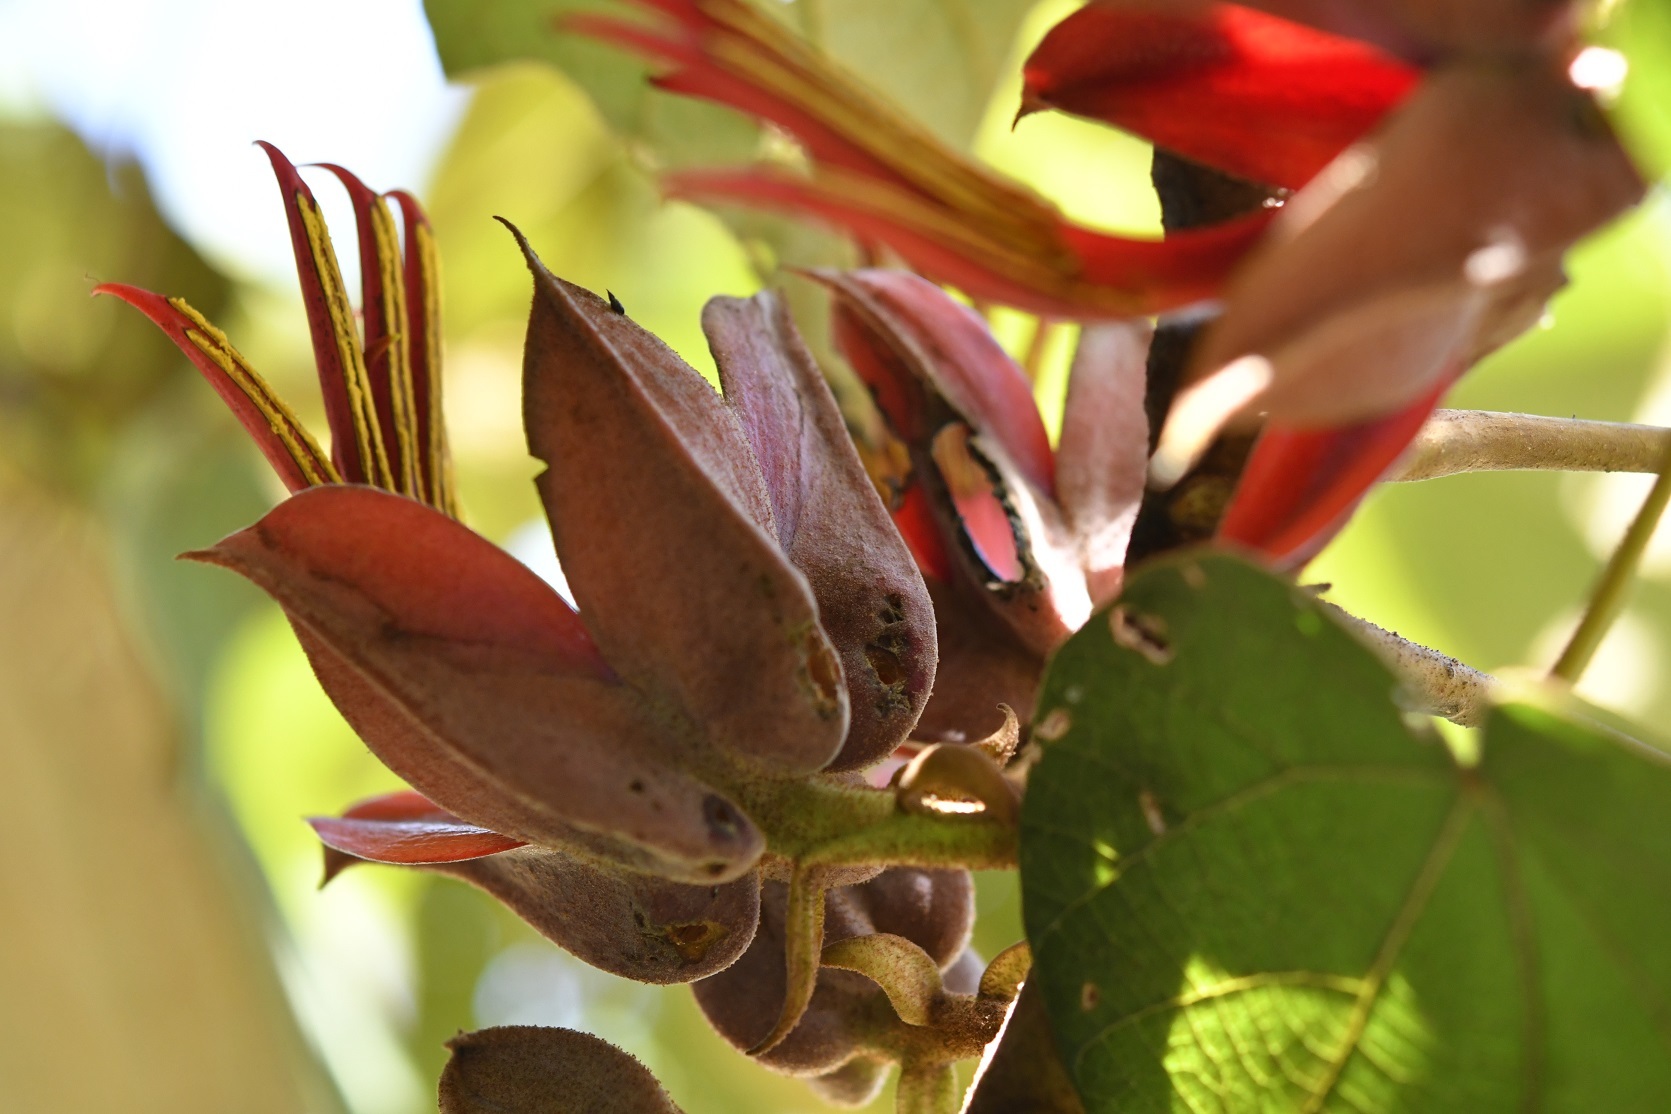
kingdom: Plantae
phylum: Tracheophyta
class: Magnoliopsida
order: Malvales
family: Malvaceae
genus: Chiranthodendron
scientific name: Chiranthodendron pentadactylon
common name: Mexican-hat-plant
